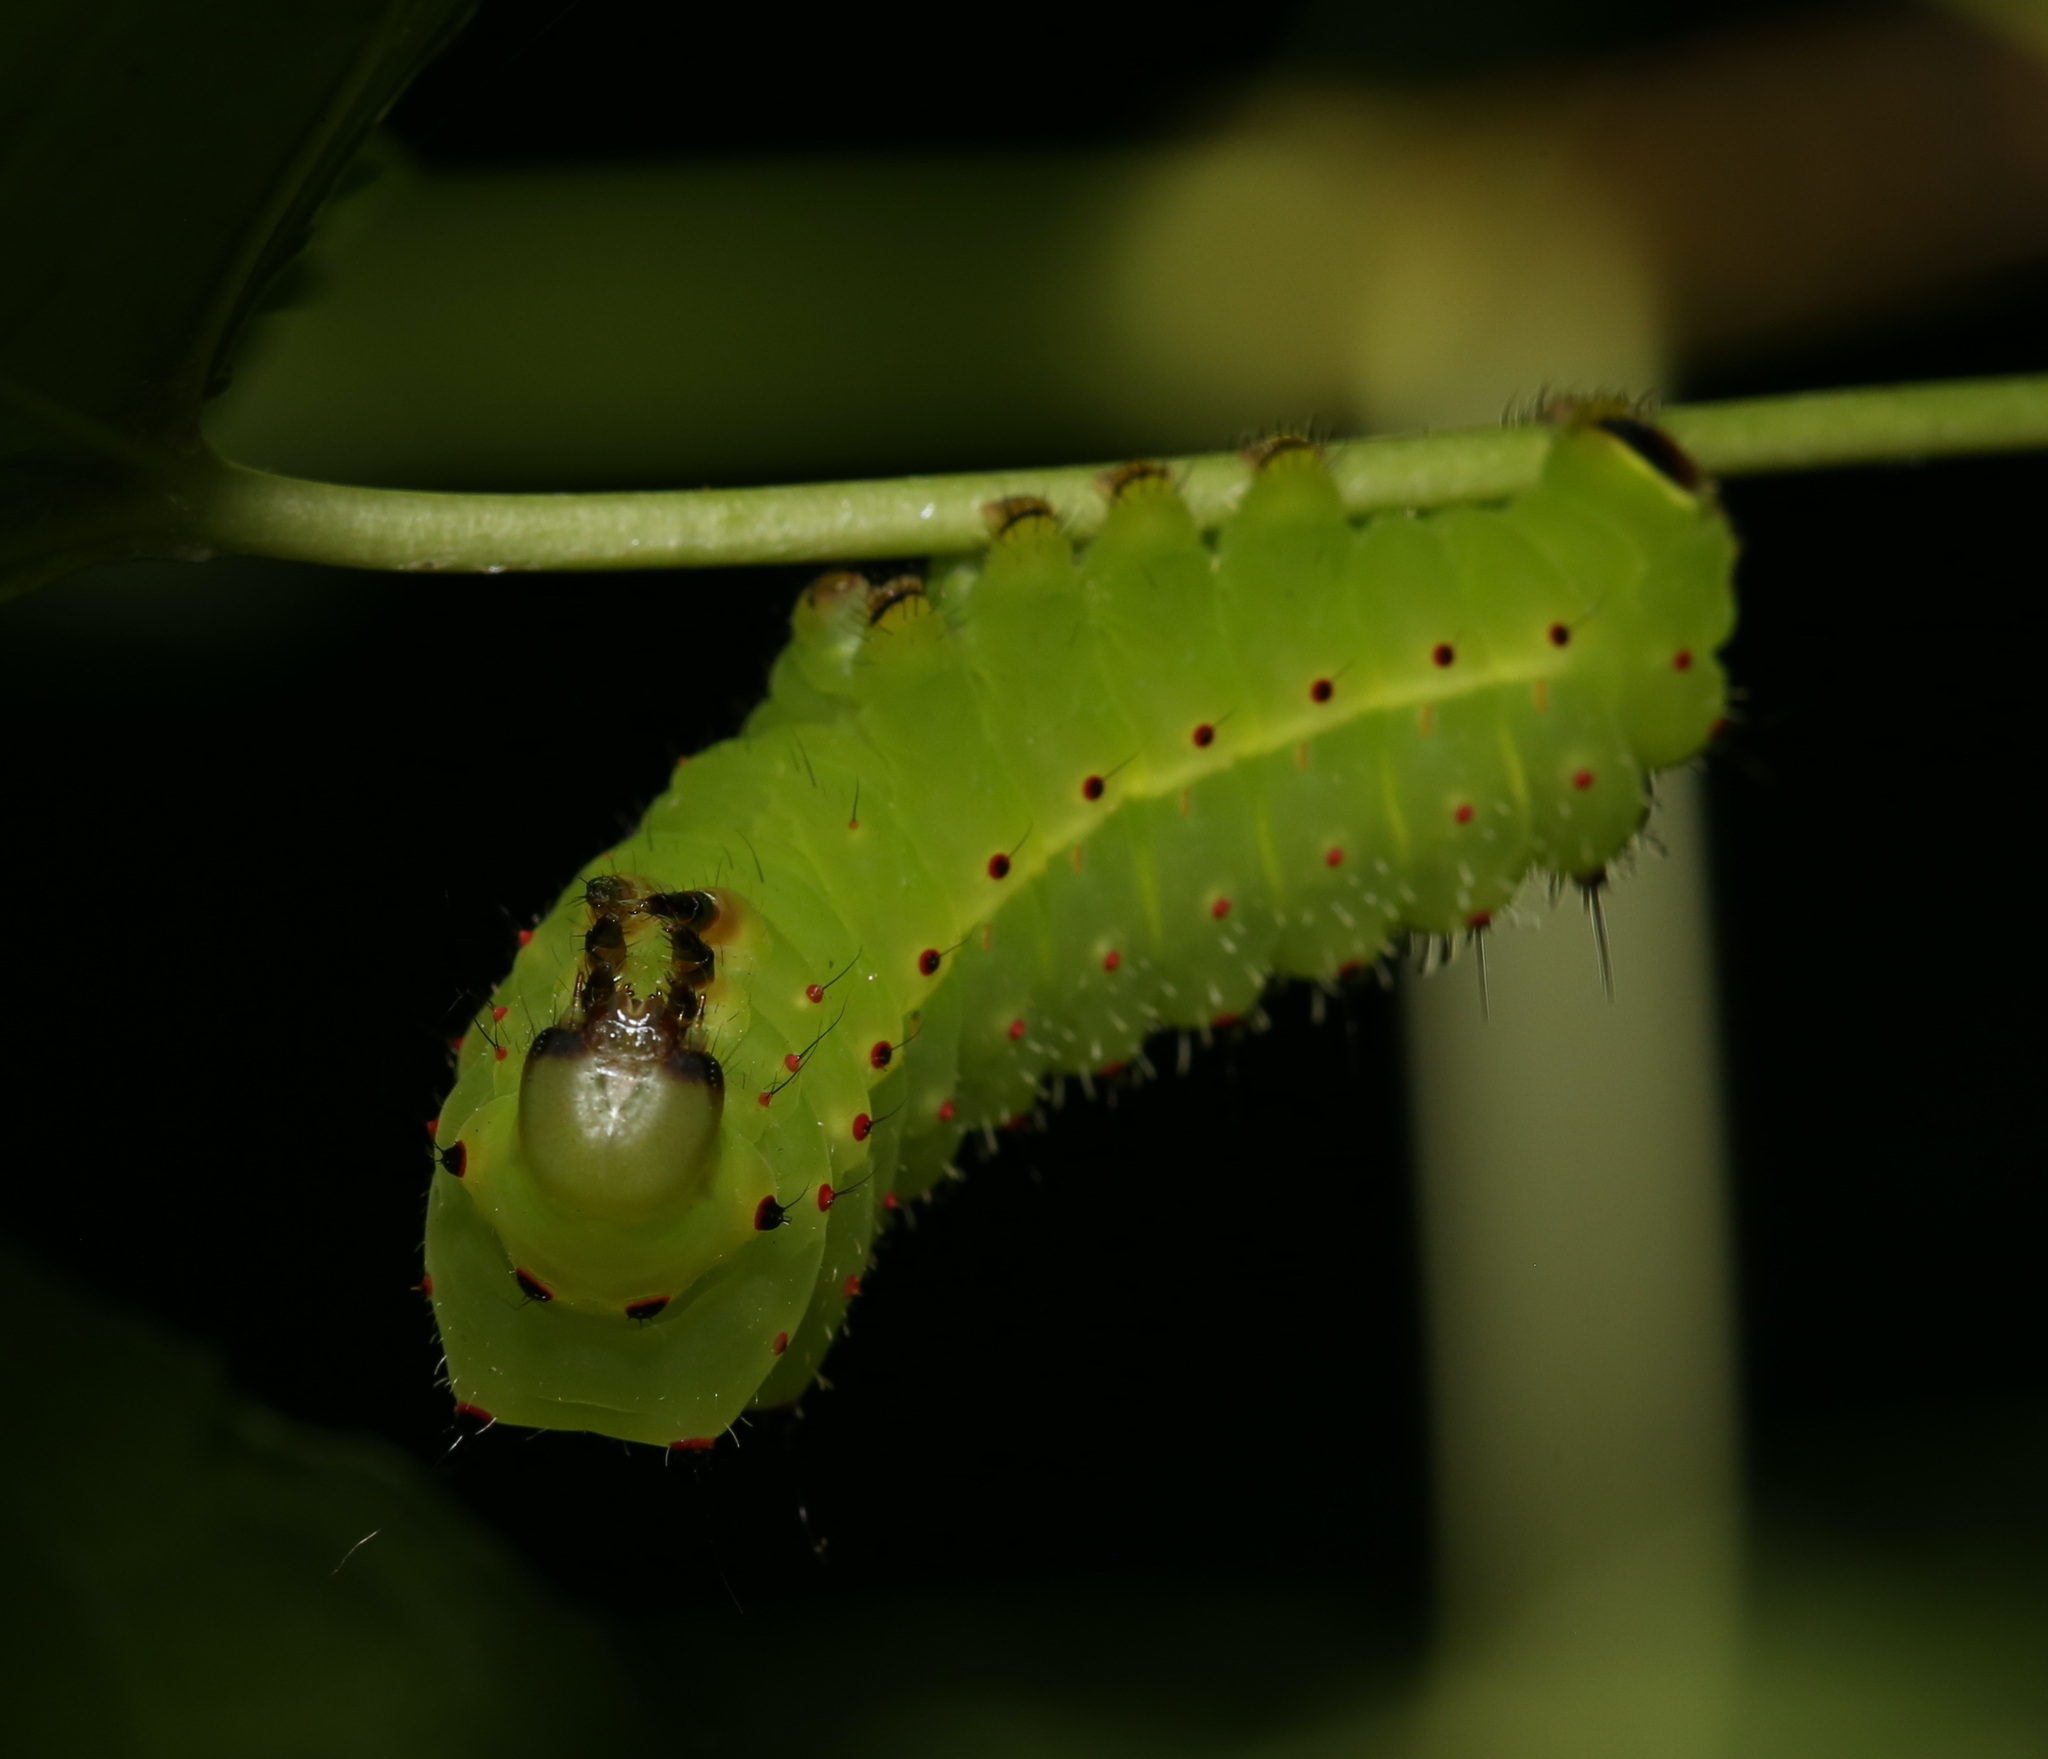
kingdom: Animalia
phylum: Arthropoda
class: Insecta
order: Lepidoptera
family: Saturniidae
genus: Actias
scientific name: Actias luna
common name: Luna moth
